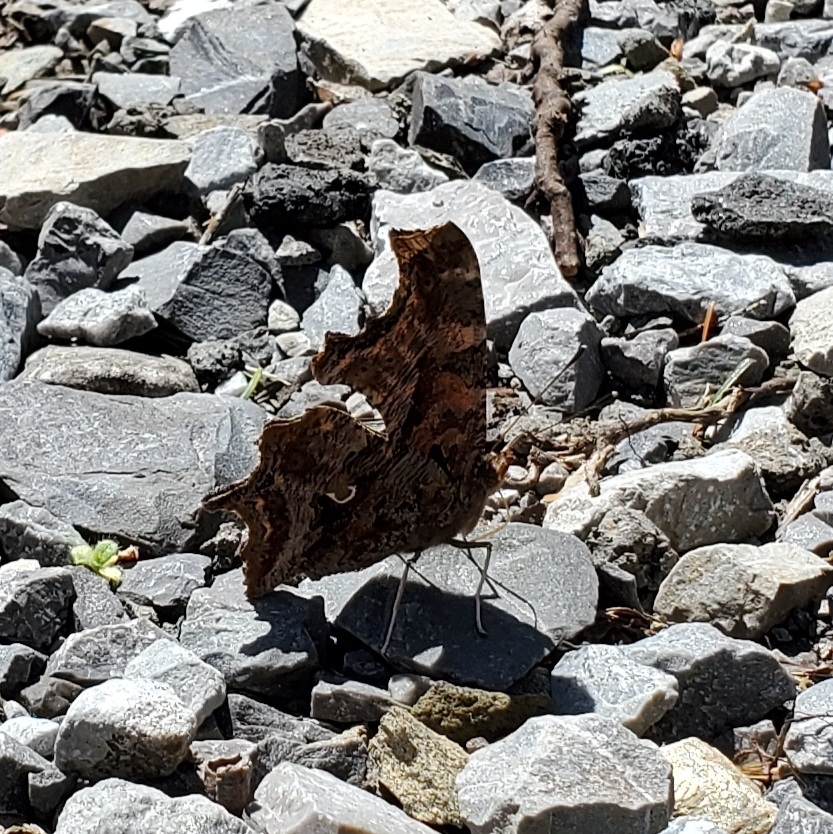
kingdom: Animalia
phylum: Arthropoda
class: Insecta
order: Lepidoptera
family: Nymphalidae
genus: Polygonia
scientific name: Polygonia comma
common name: Eastern comma
